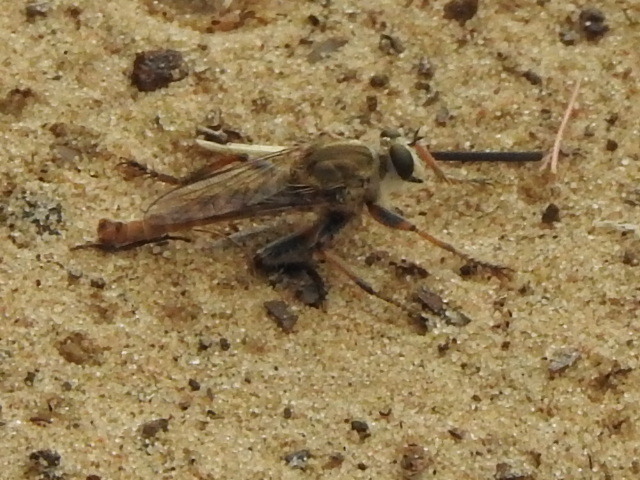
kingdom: Animalia
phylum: Arthropoda
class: Insecta
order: Diptera
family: Asilidae
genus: Proctacanthella
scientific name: Proctacanthella cacopiloga
